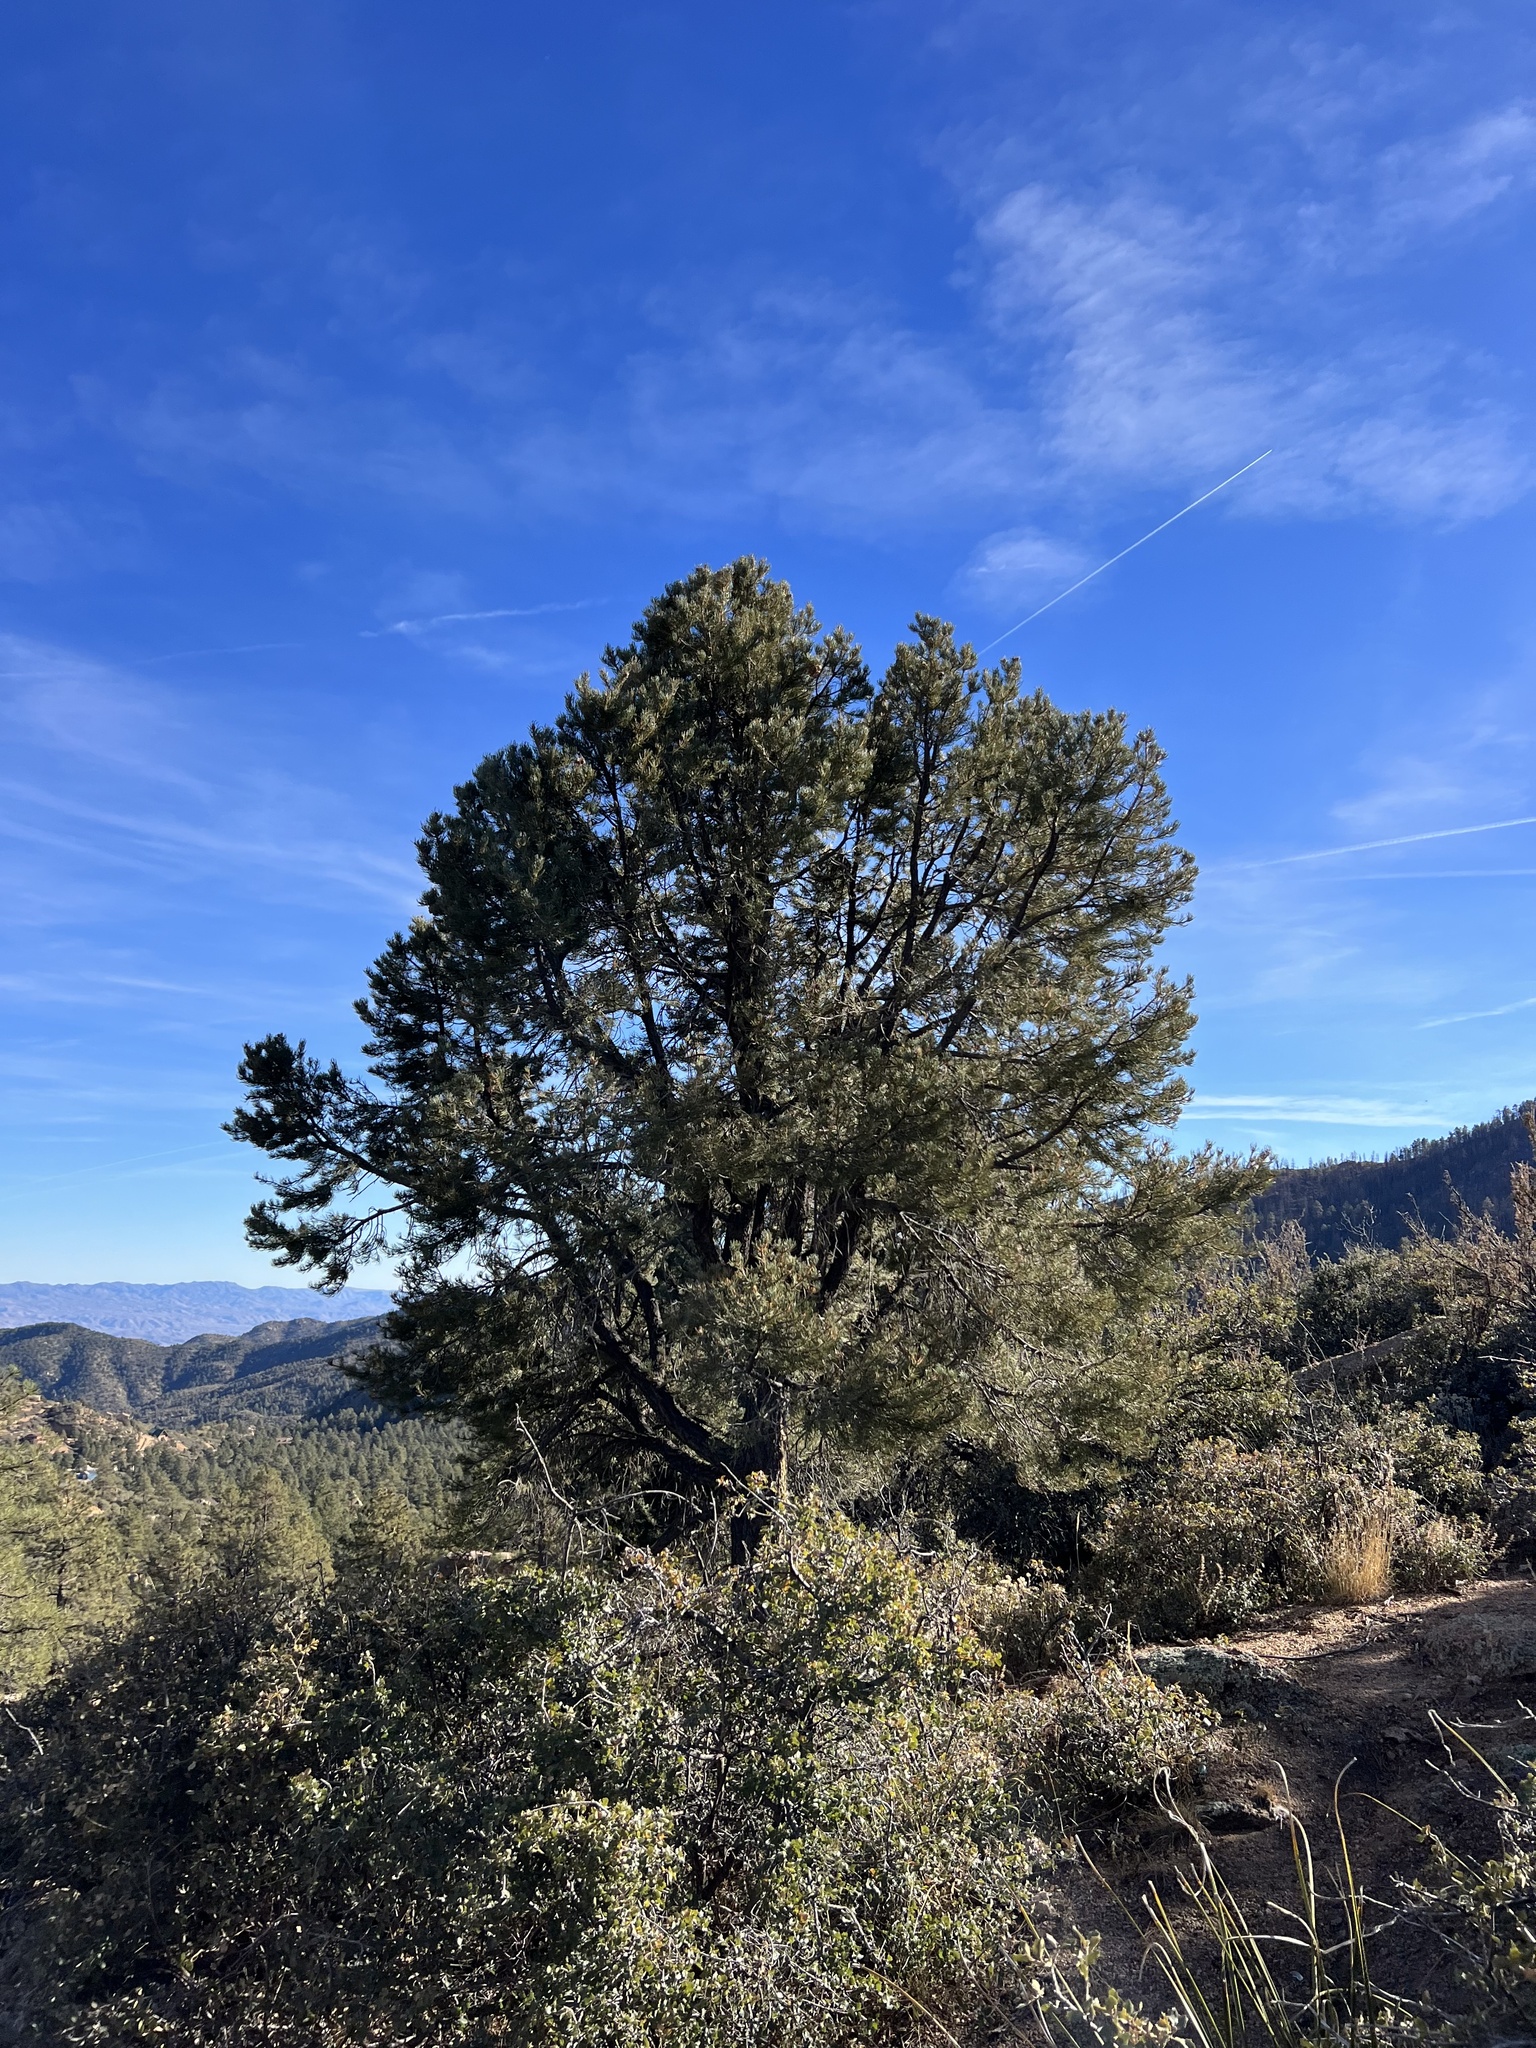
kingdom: Plantae
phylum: Tracheophyta
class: Pinopsida
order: Pinales
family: Pinaceae
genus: Pinus
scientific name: Pinus monophylla
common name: One-leaved nut pine
